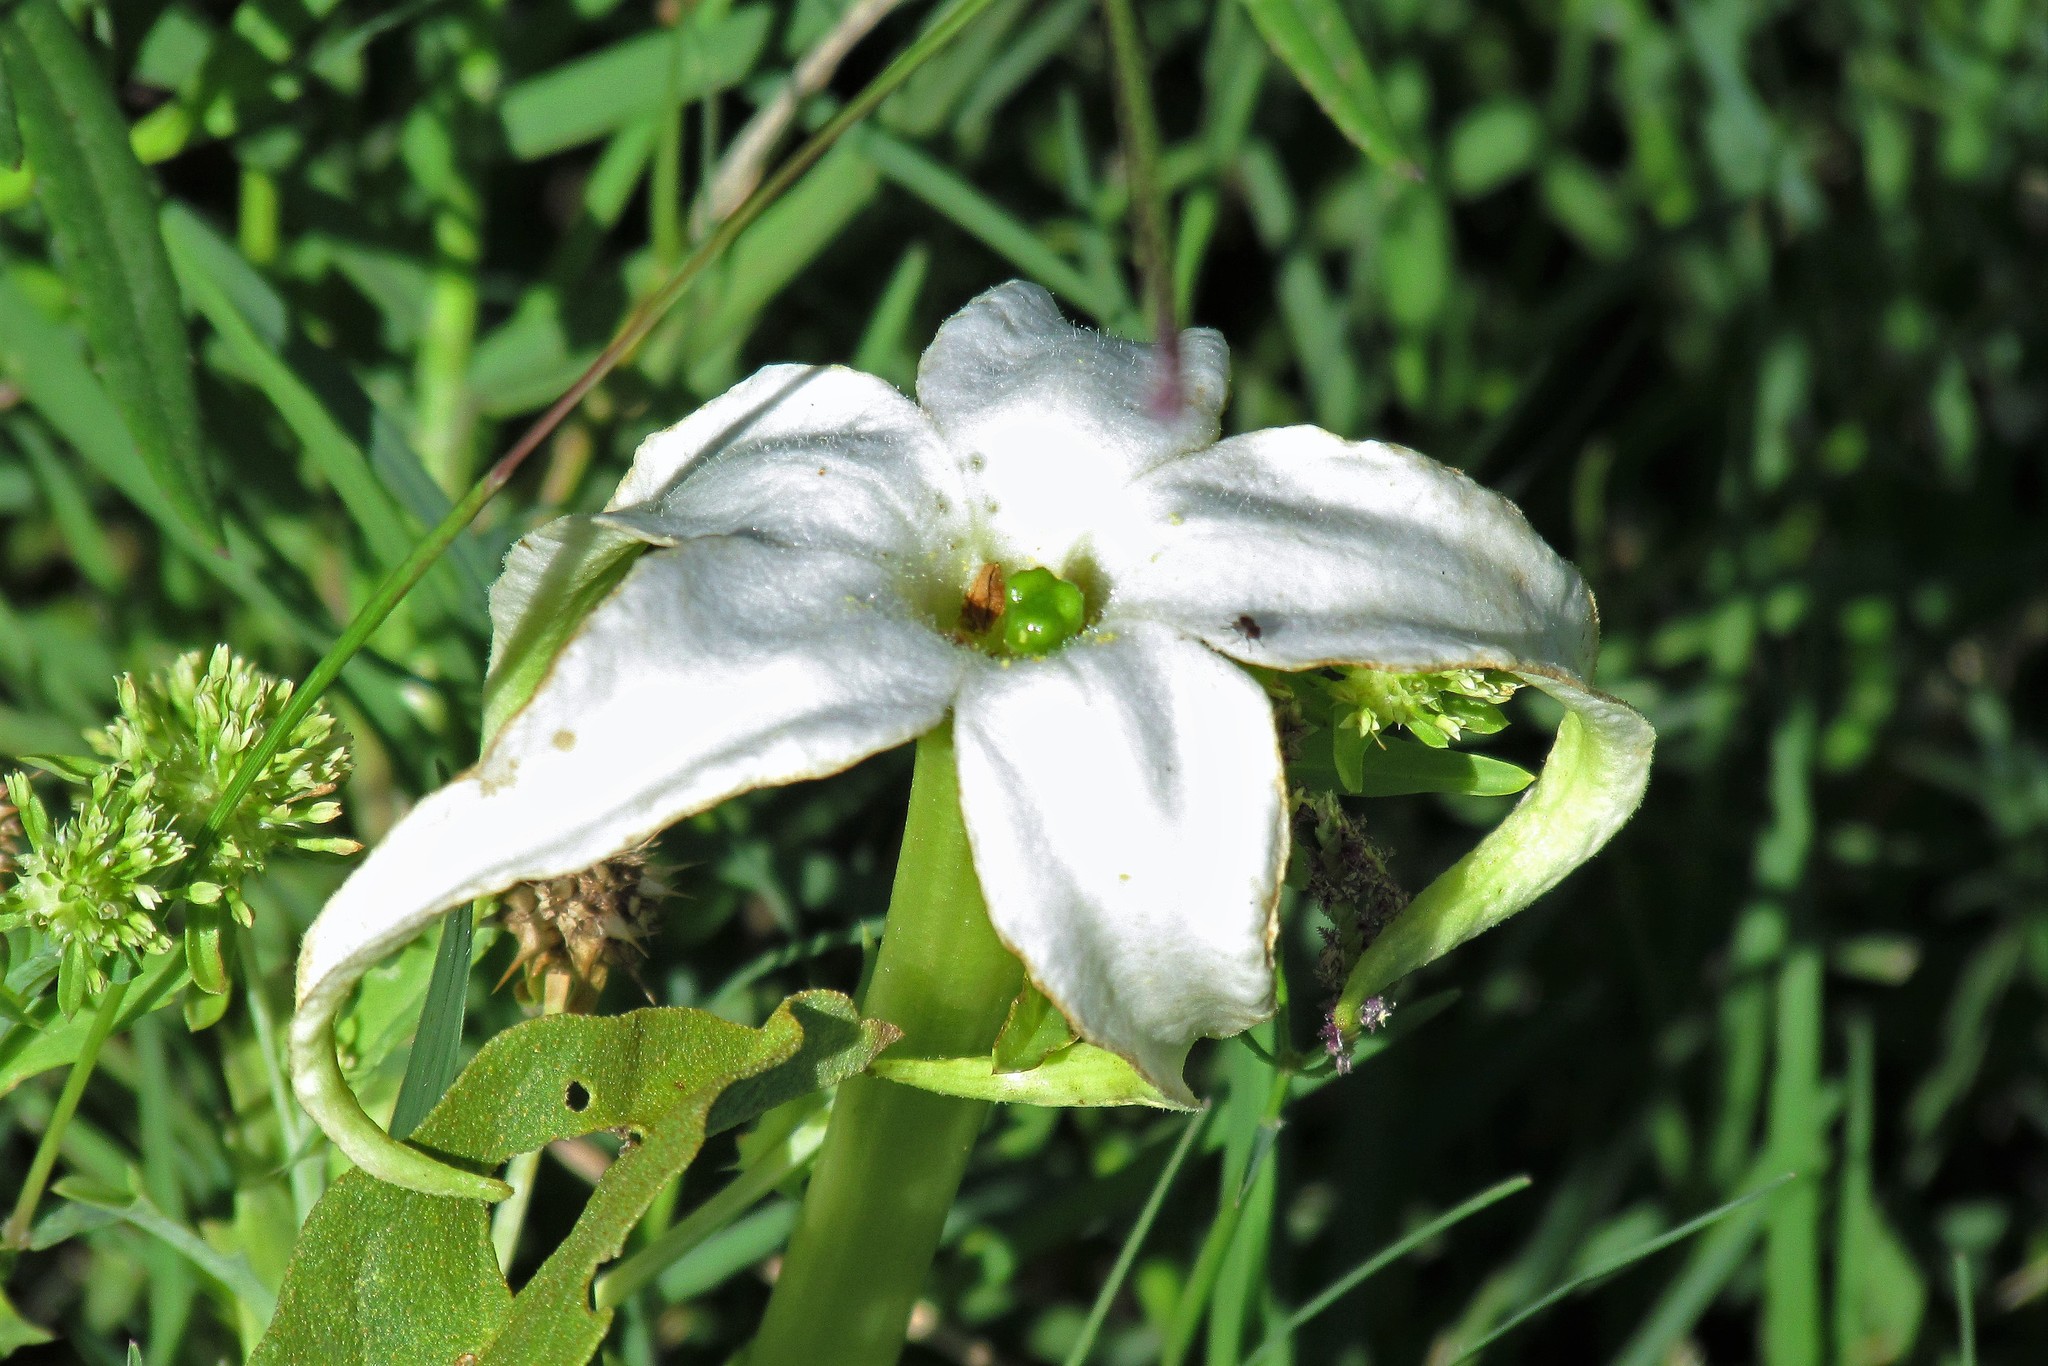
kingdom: Plantae
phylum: Tracheophyta
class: Magnoliopsida
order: Solanales
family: Solanaceae
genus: Jaborosa
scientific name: Jaborosa integrifolia
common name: Springblossom
